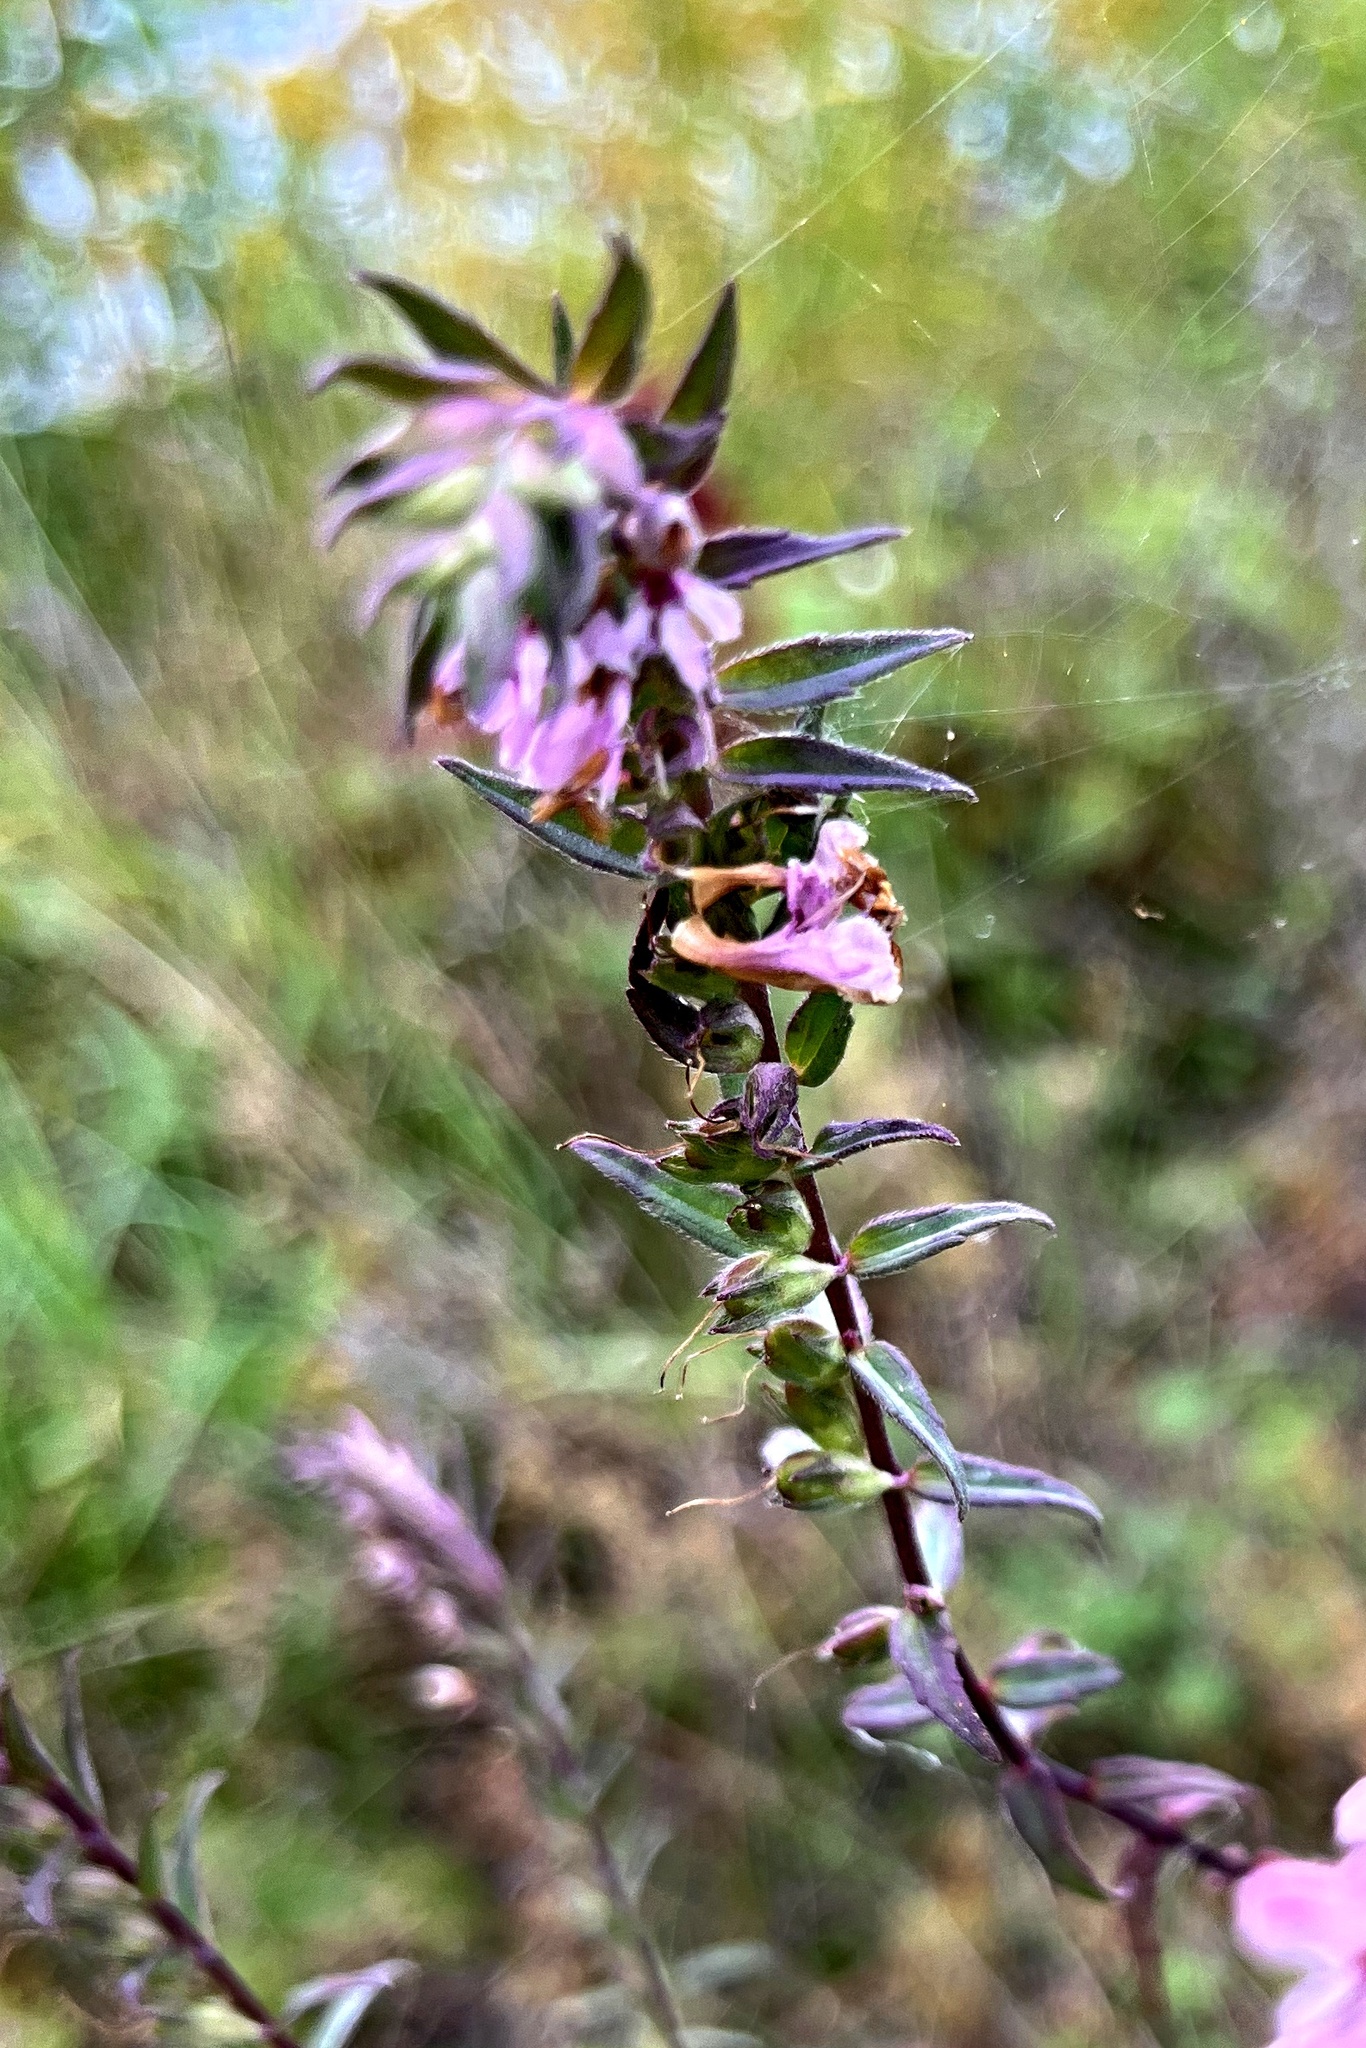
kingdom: Plantae
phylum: Tracheophyta
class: Magnoliopsida
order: Lamiales
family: Orobanchaceae
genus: Odontites
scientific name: Odontites vulgaris
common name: Broomrape
